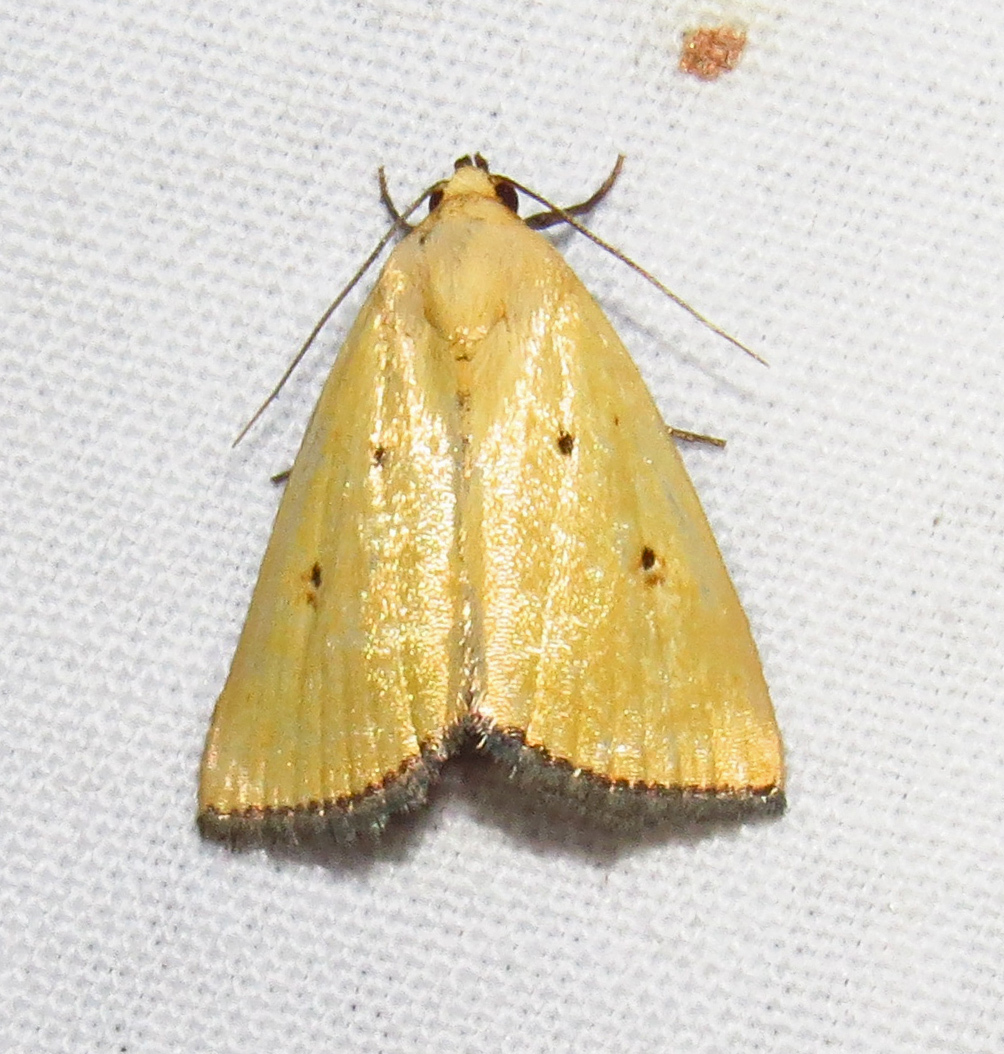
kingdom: Animalia
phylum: Arthropoda
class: Insecta
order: Lepidoptera
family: Noctuidae
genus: Marimatha
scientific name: Marimatha nigrofimbria
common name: Black-bordered lemon moth
